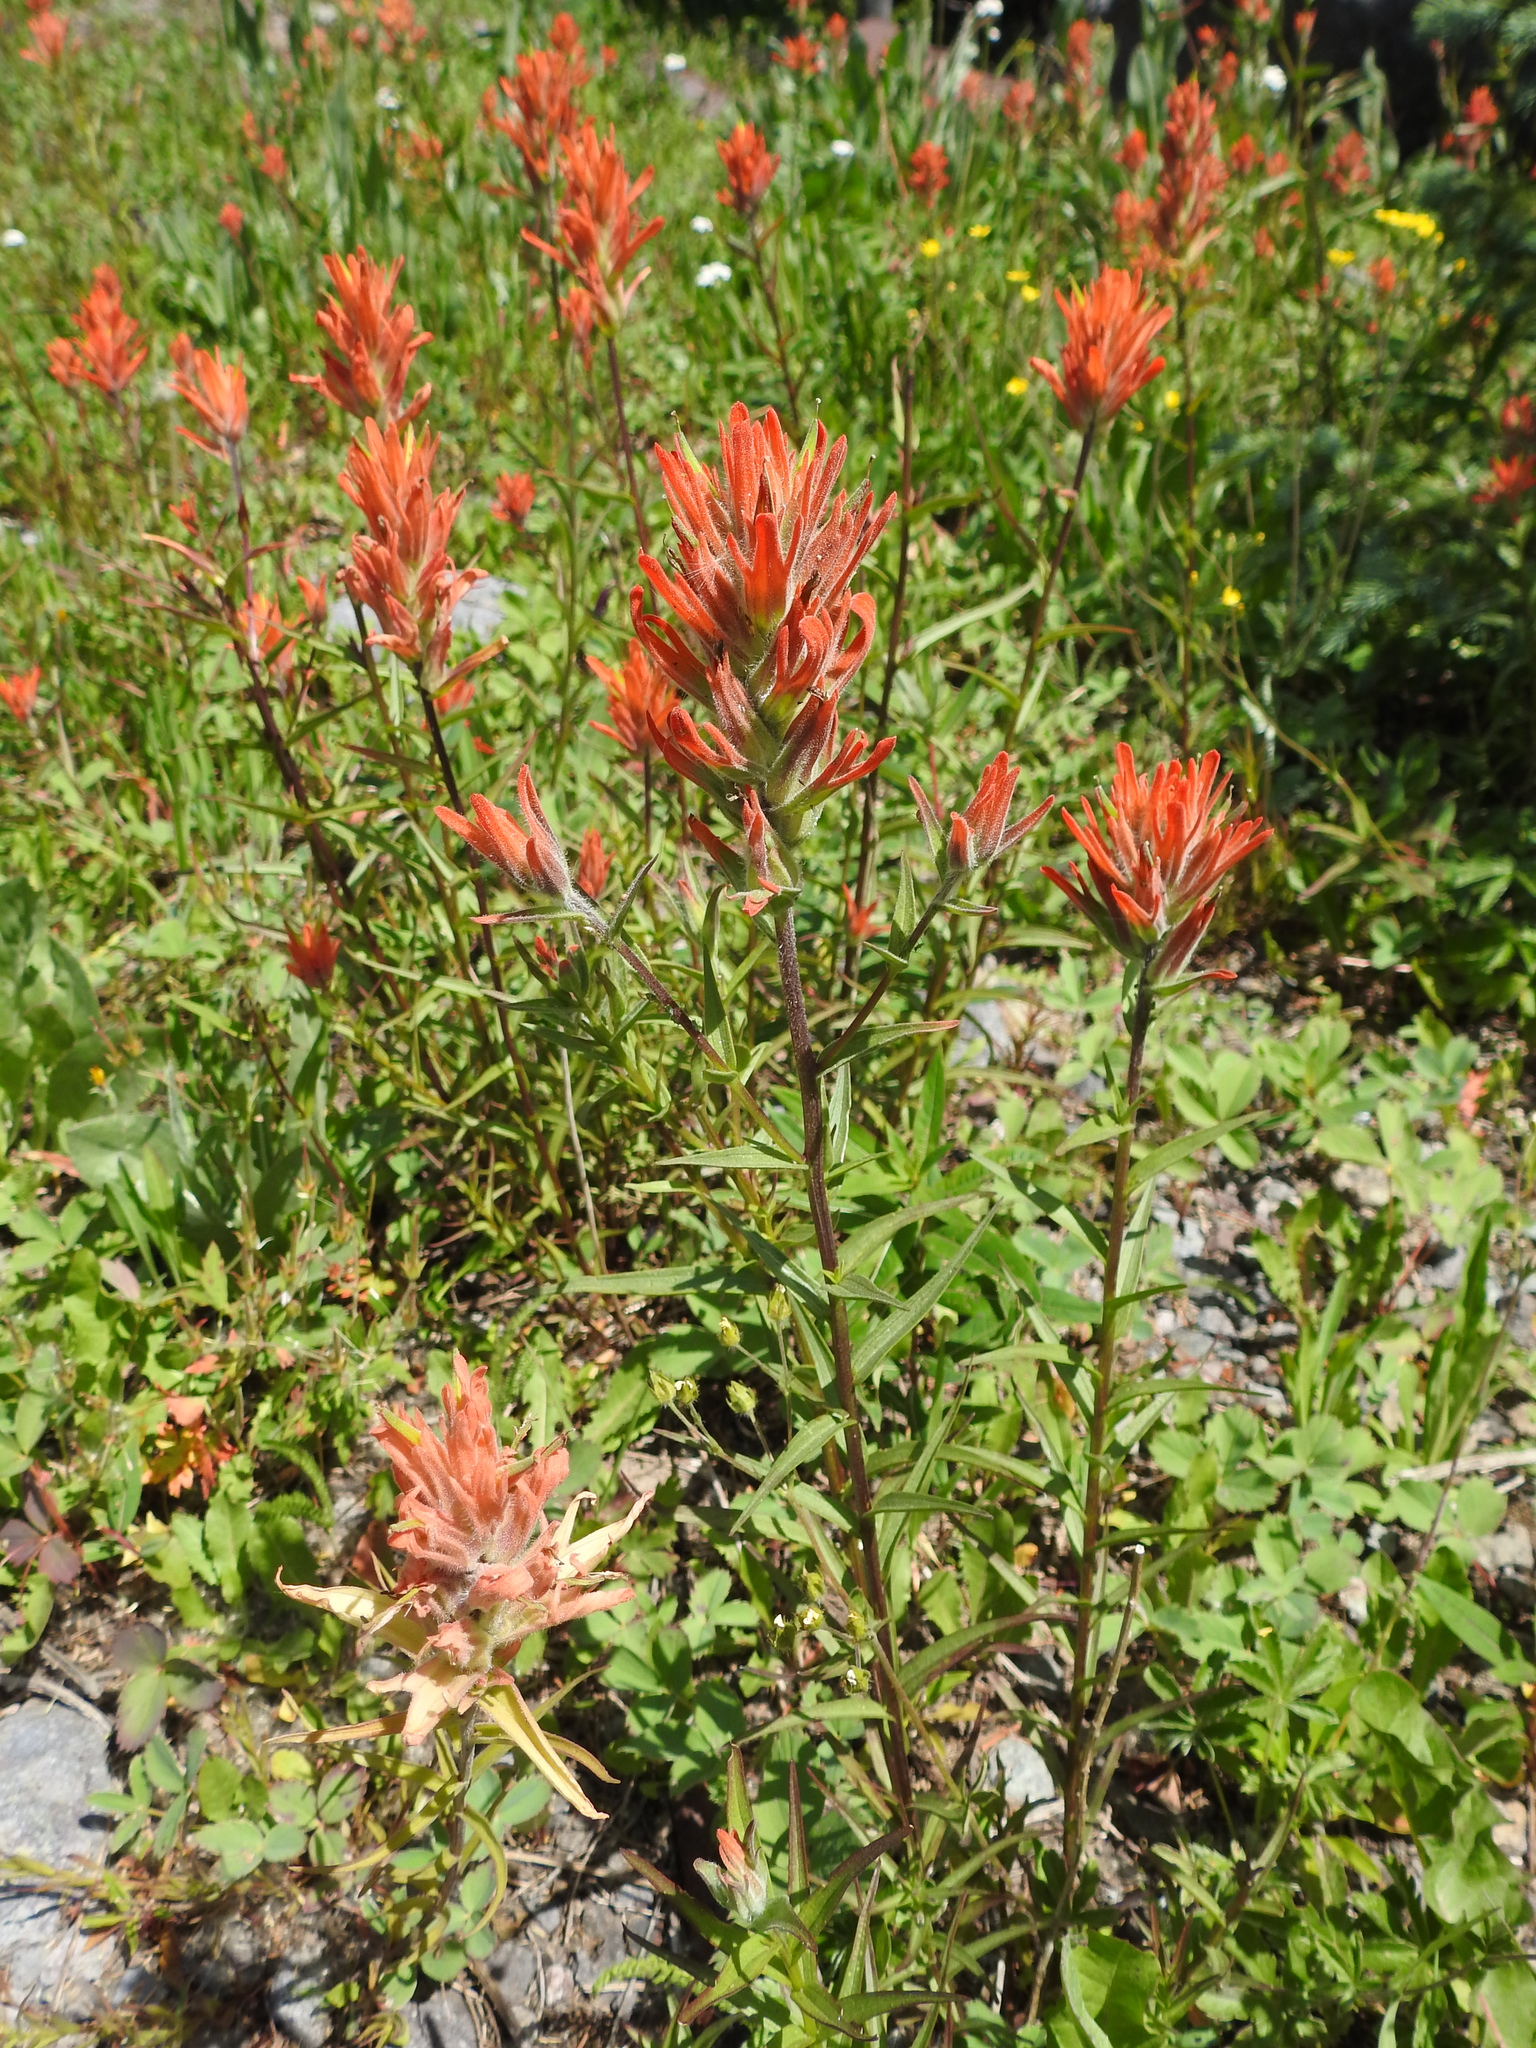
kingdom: Plantae
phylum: Tracheophyta
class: Magnoliopsida
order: Lamiales
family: Orobanchaceae
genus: Castilleja
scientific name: Castilleja miniata
